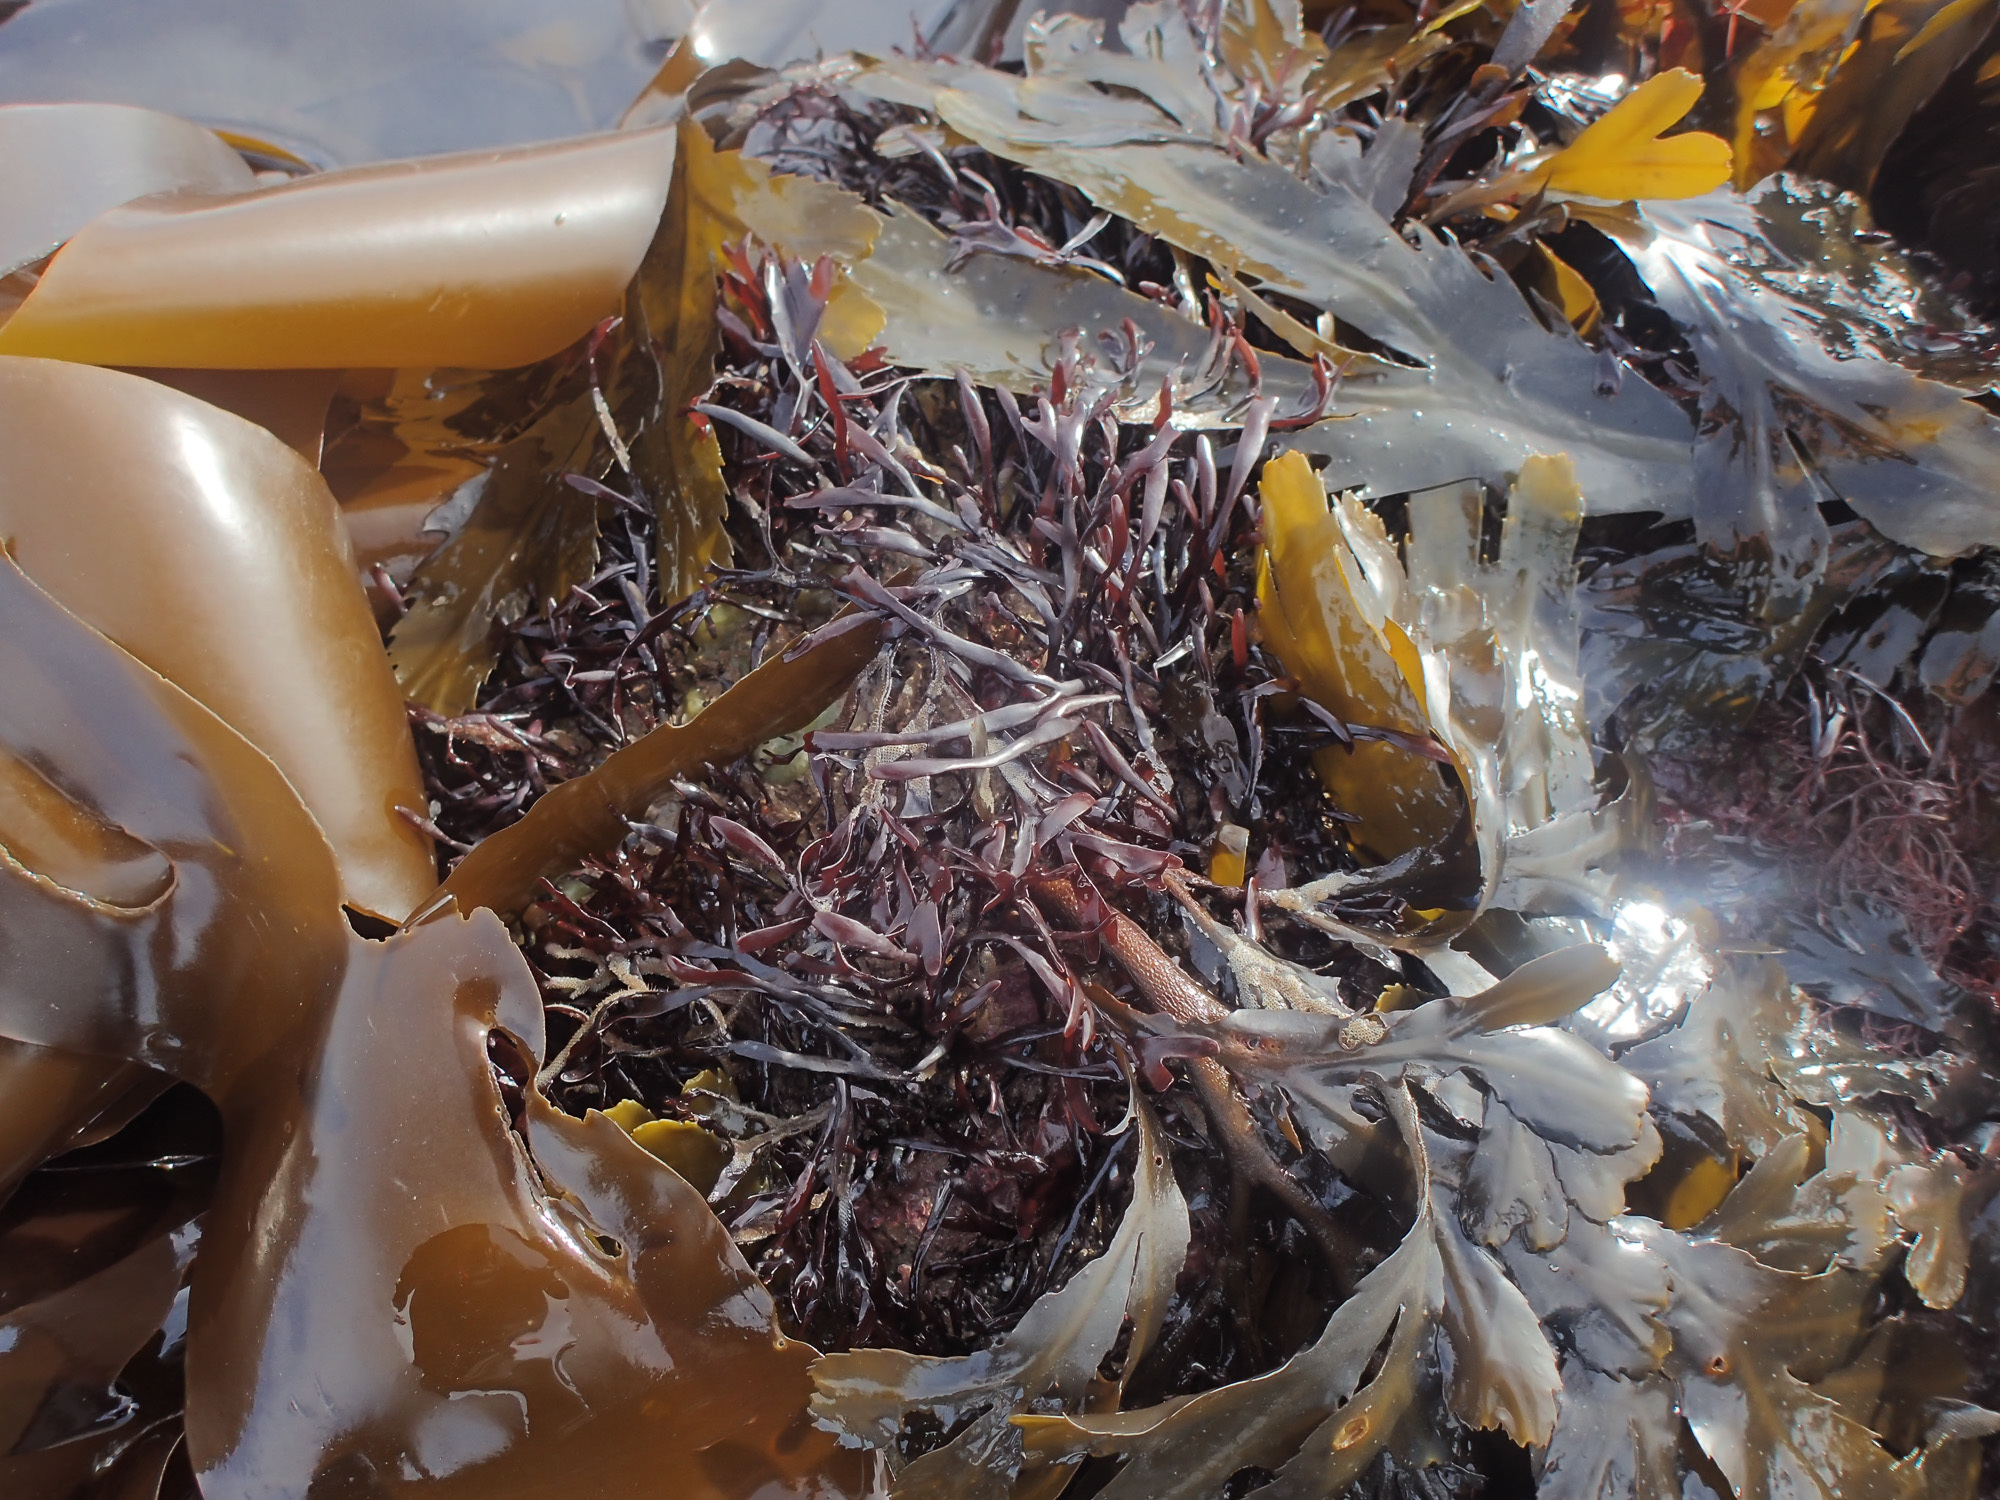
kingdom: Plantae
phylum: Rhodophyta
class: Florideophyceae
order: Gigartinales
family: Gigartinaceae
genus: Chondrus
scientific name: Chondrus crispus
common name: Carrageen
